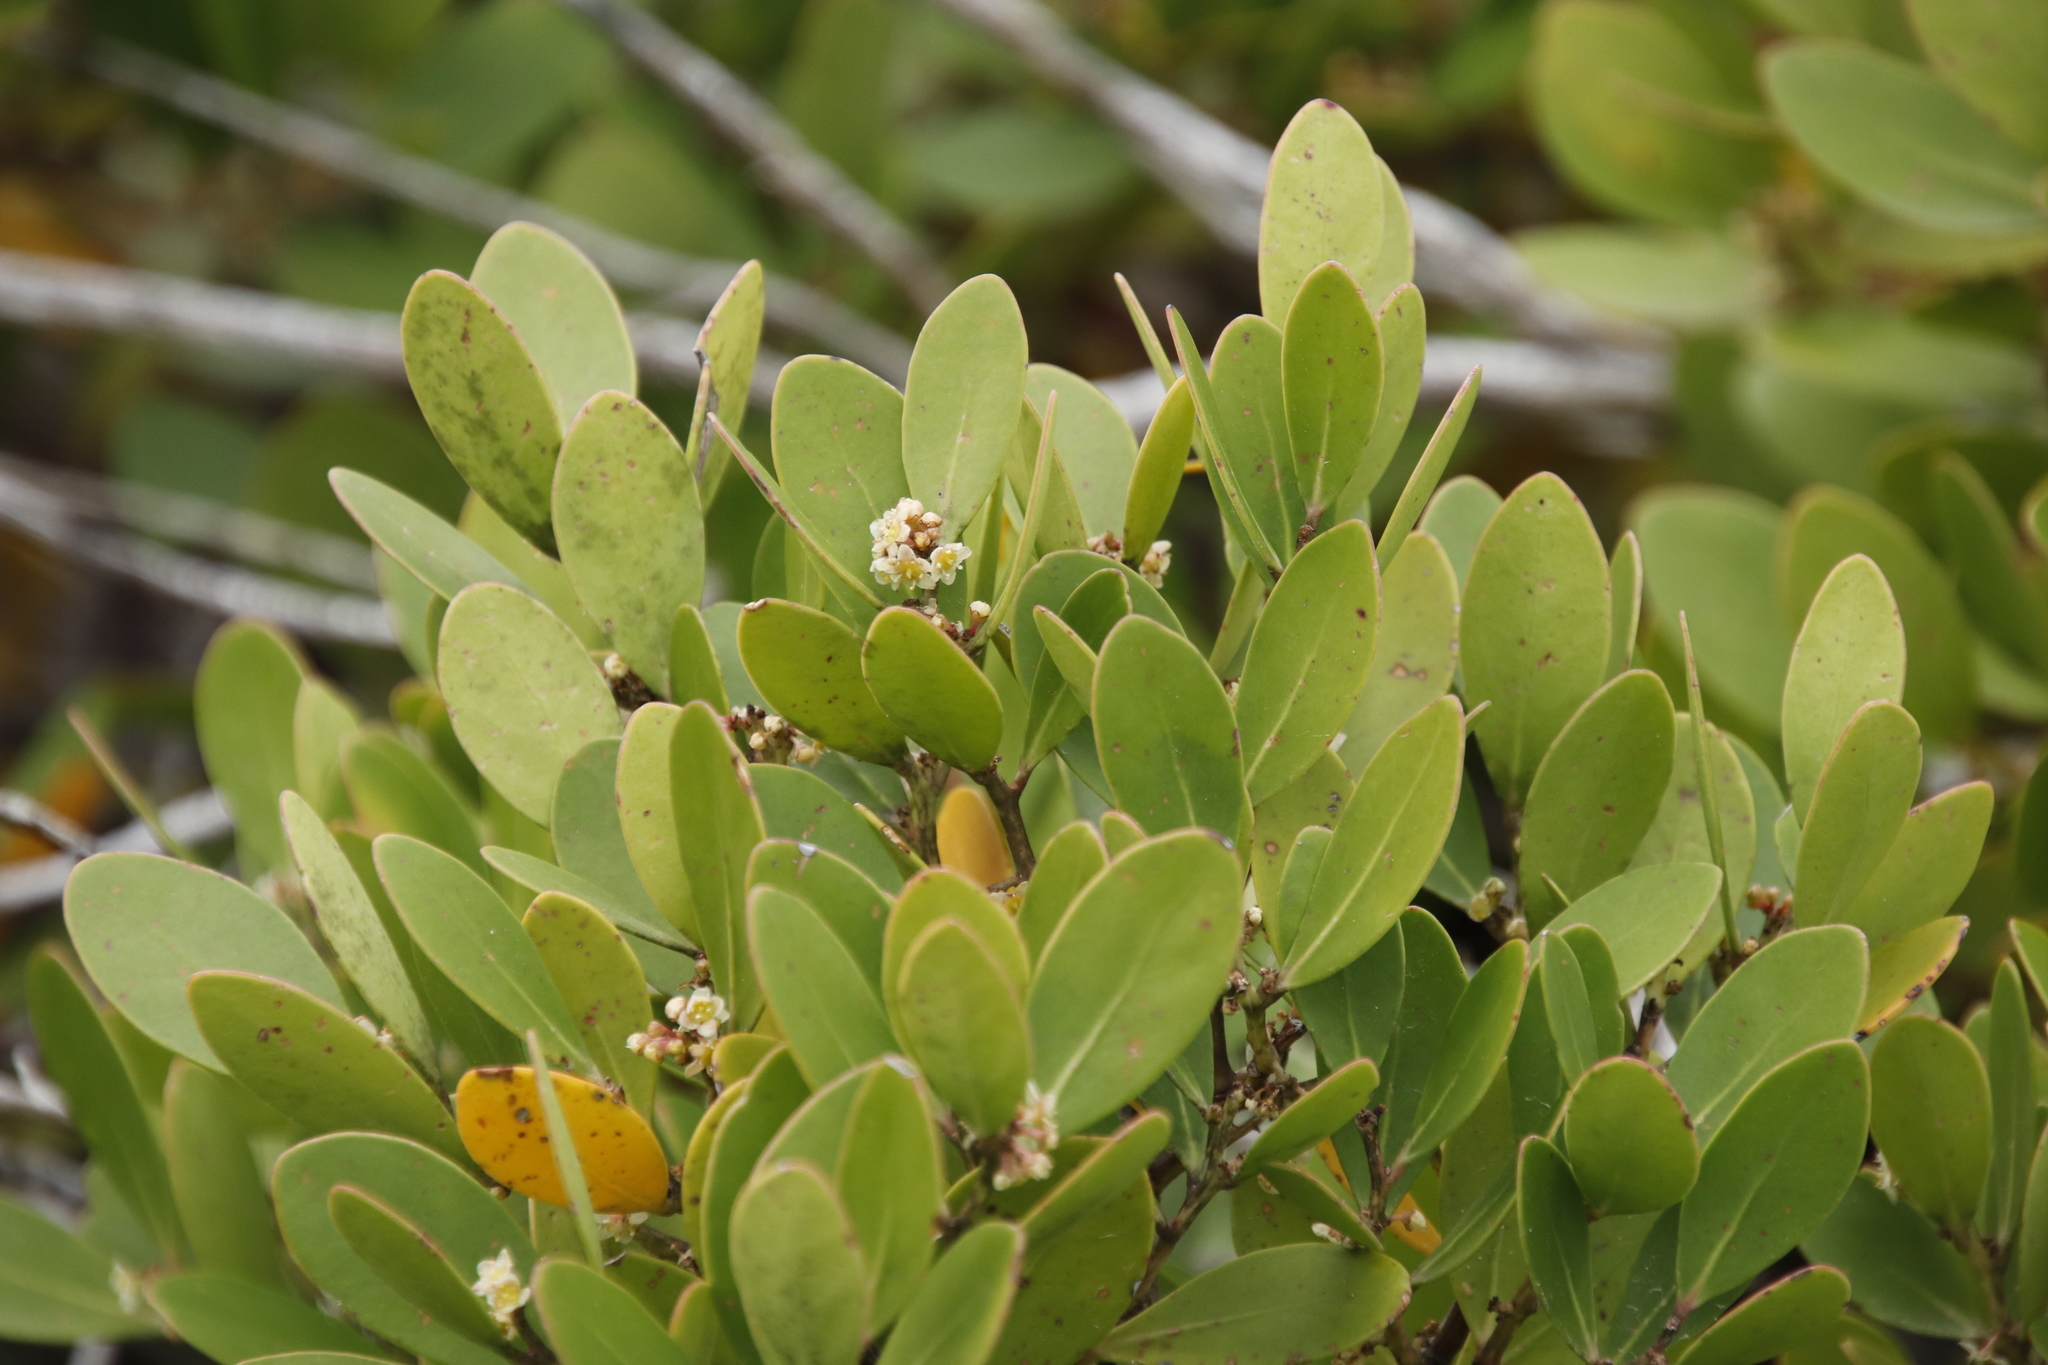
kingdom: Plantae
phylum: Tracheophyta
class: Magnoliopsida
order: Celastrales
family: Celastraceae
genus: Pterocelastrus
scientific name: Pterocelastrus tricuspidatus
